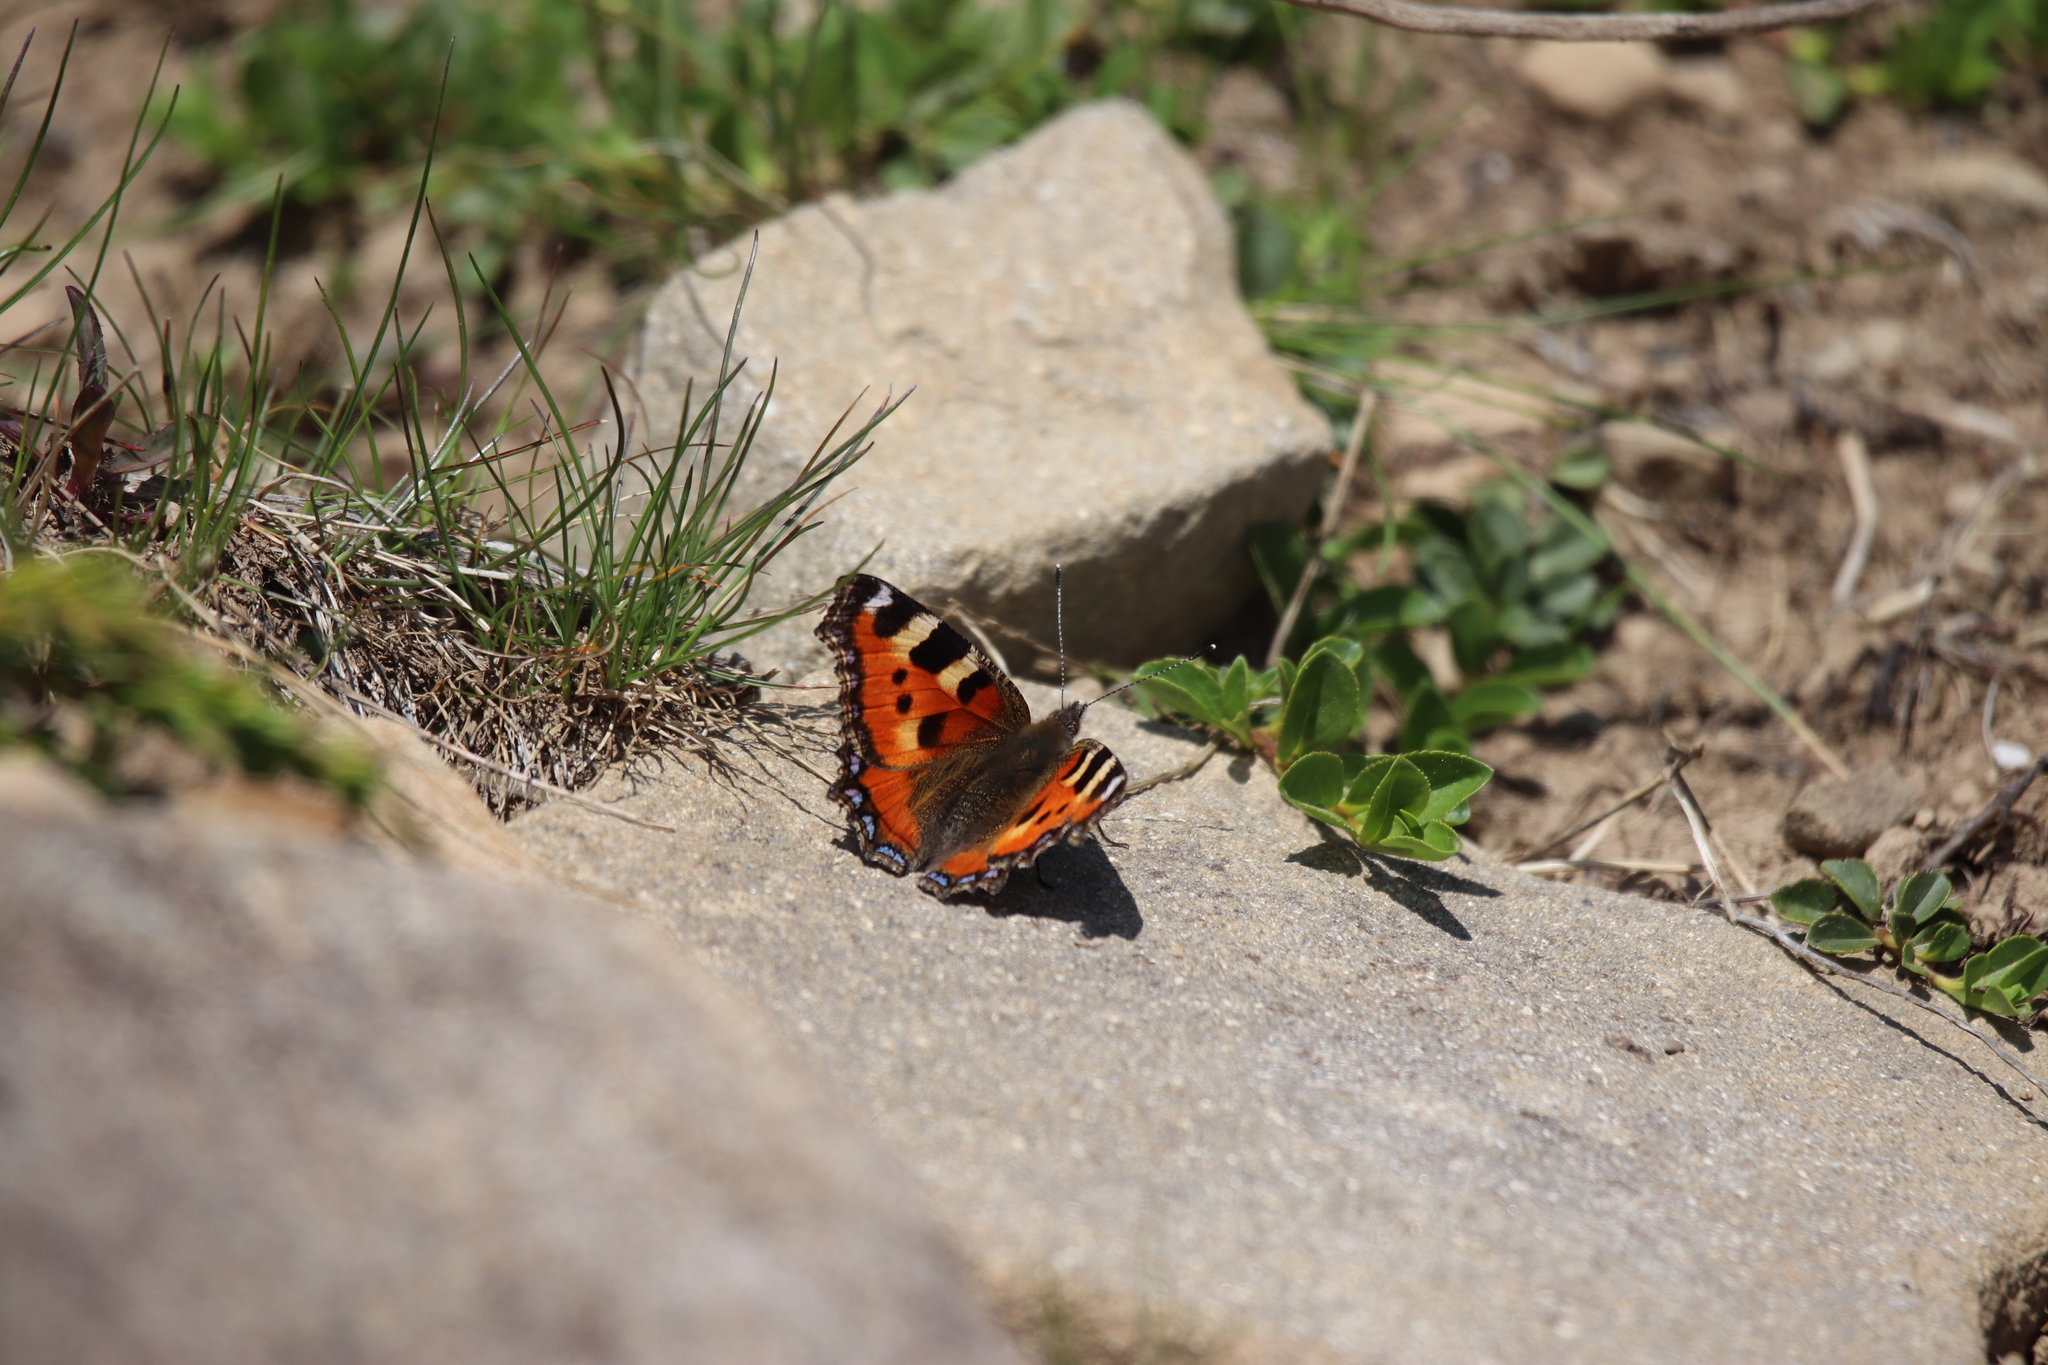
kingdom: Animalia
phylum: Arthropoda
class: Insecta
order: Lepidoptera
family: Nymphalidae
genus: Aglais
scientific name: Aglais urticae
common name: Small tortoiseshell
